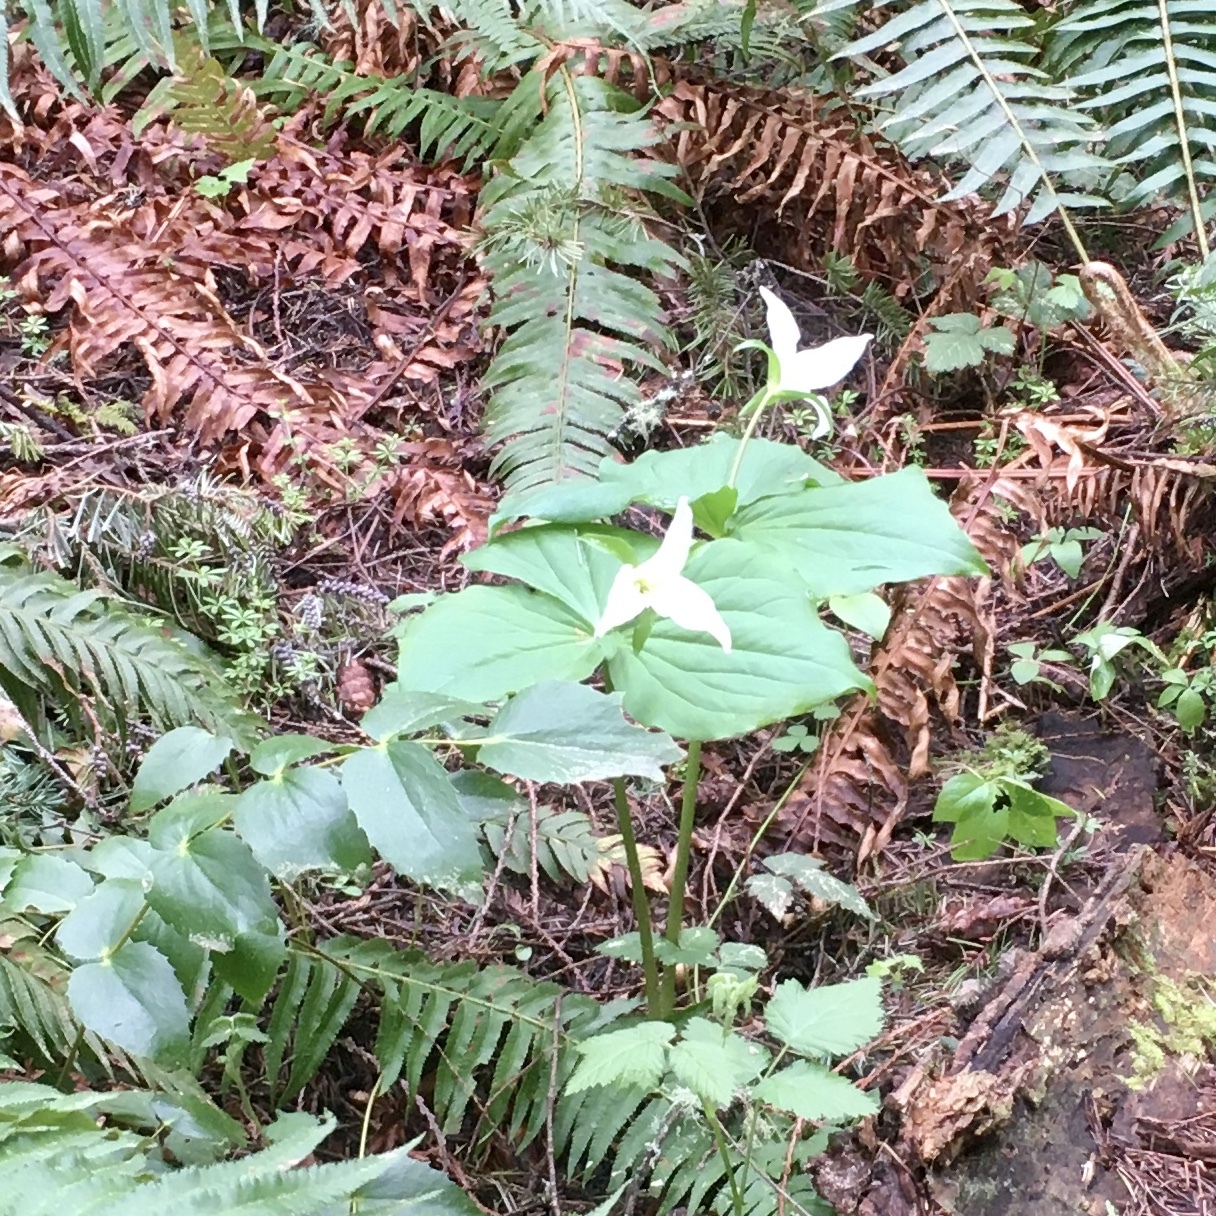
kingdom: Plantae
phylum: Tracheophyta
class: Liliopsida
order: Liliales
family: Melanthiaceae
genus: Trillium
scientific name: Trillium ovatum
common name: Pacific trillium
